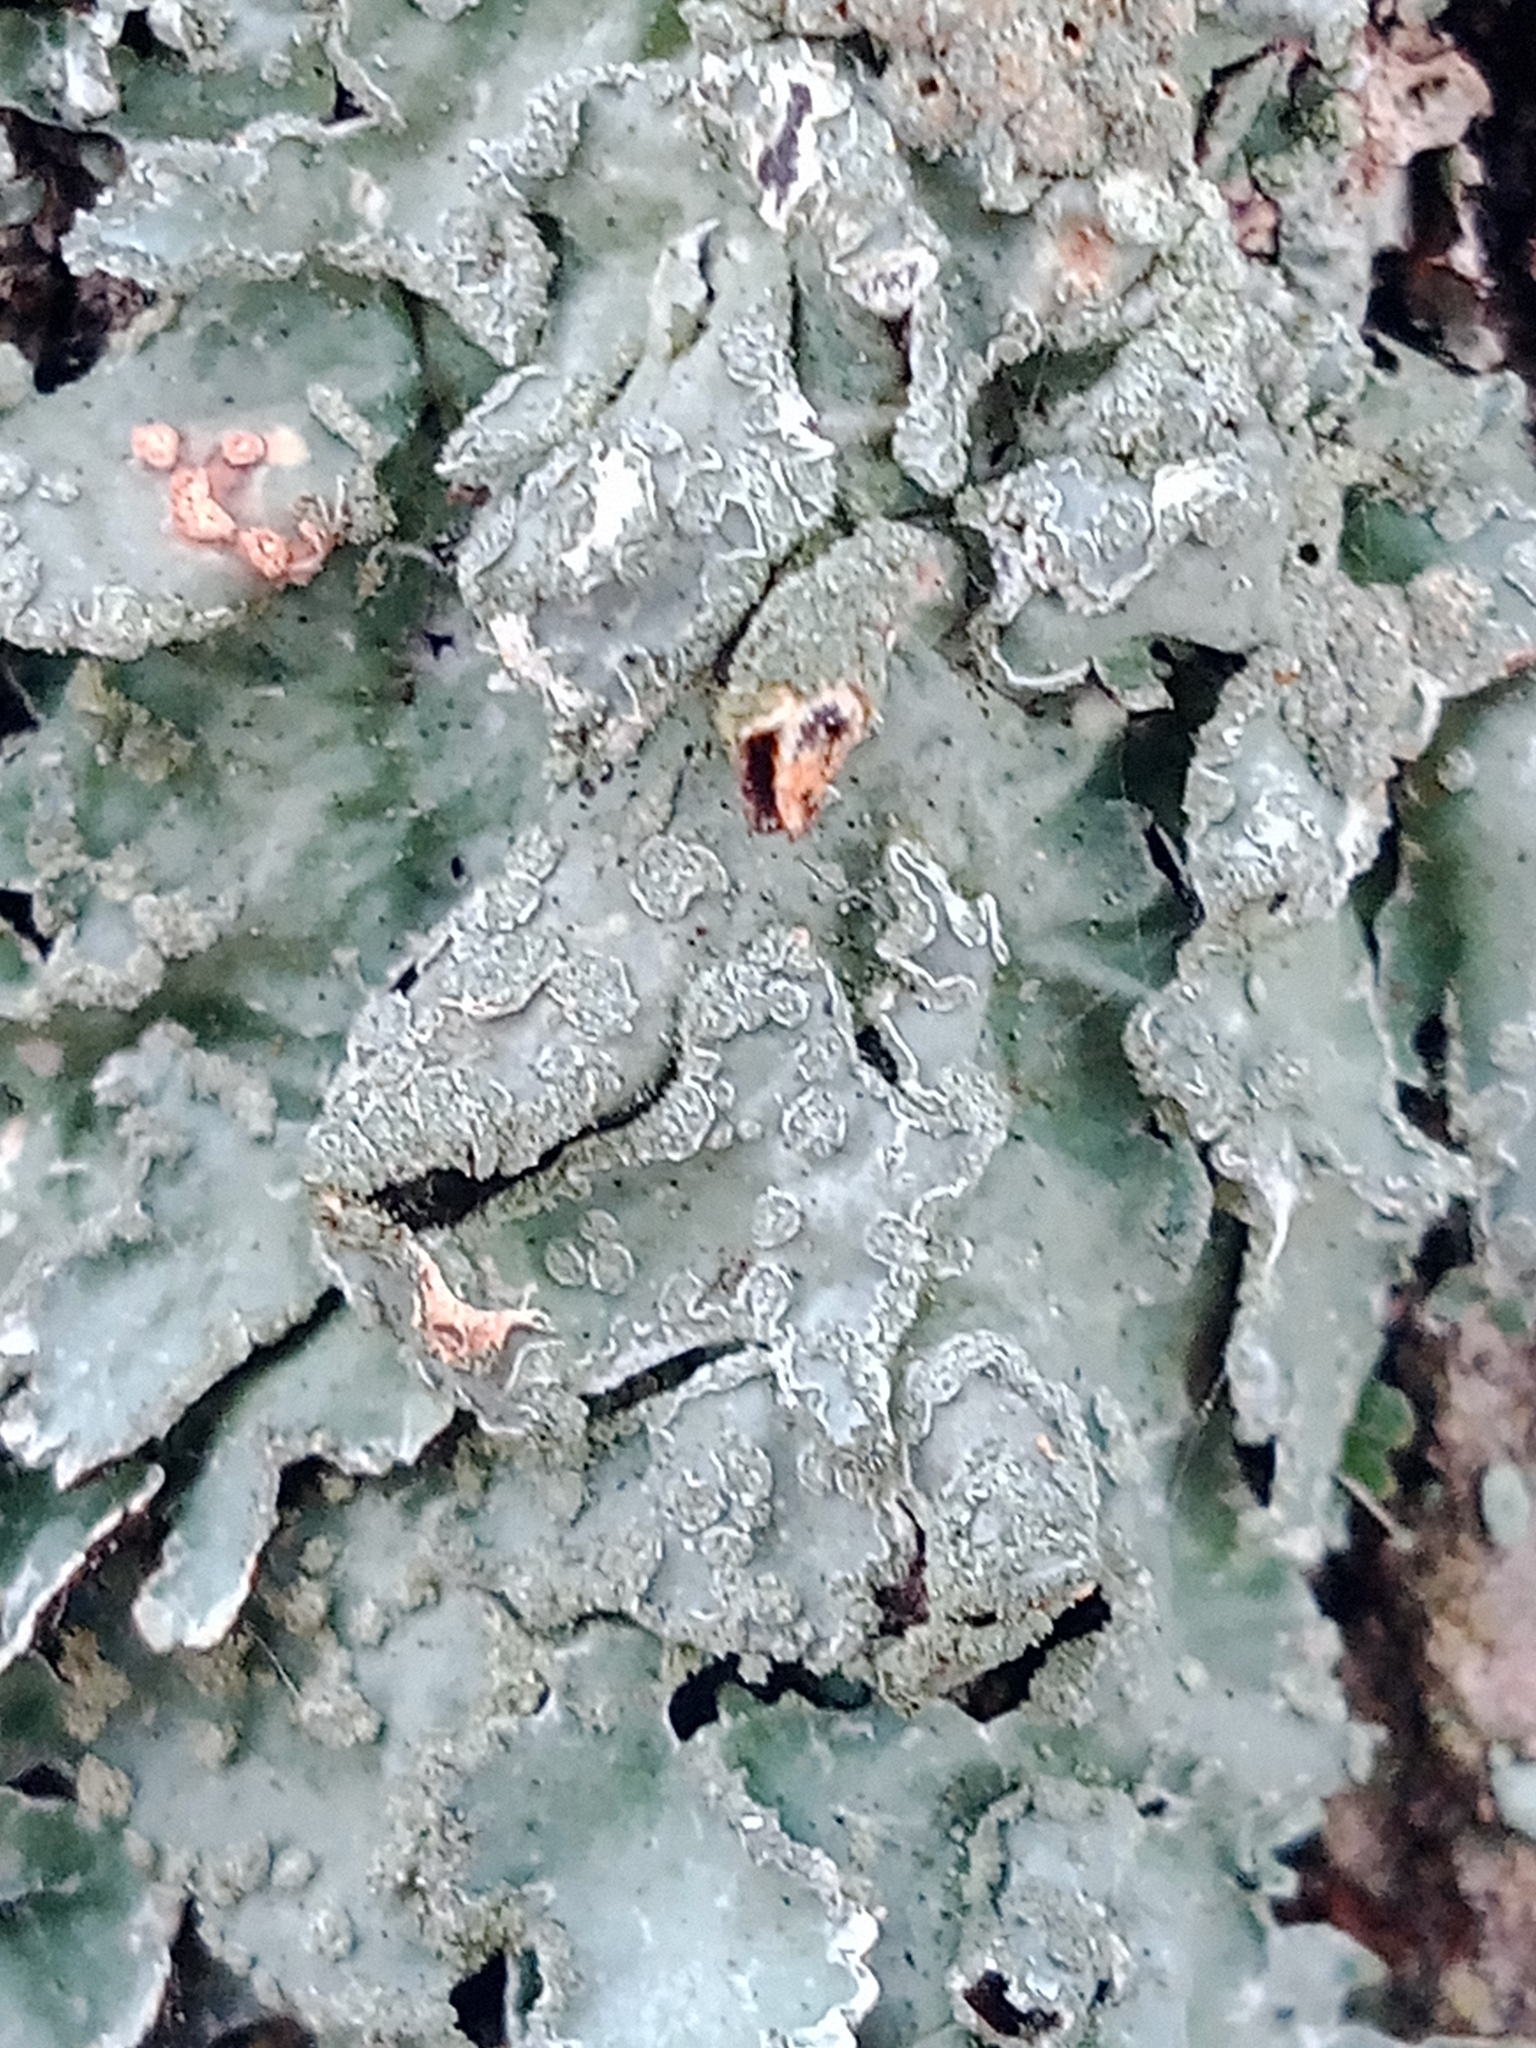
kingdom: Fungi
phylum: Ascomycota
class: Lecanoromycetes
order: Lecanorales
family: Parmeliaceae
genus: Parmelia
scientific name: Parmelia sulcata
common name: Netted shield lichen
